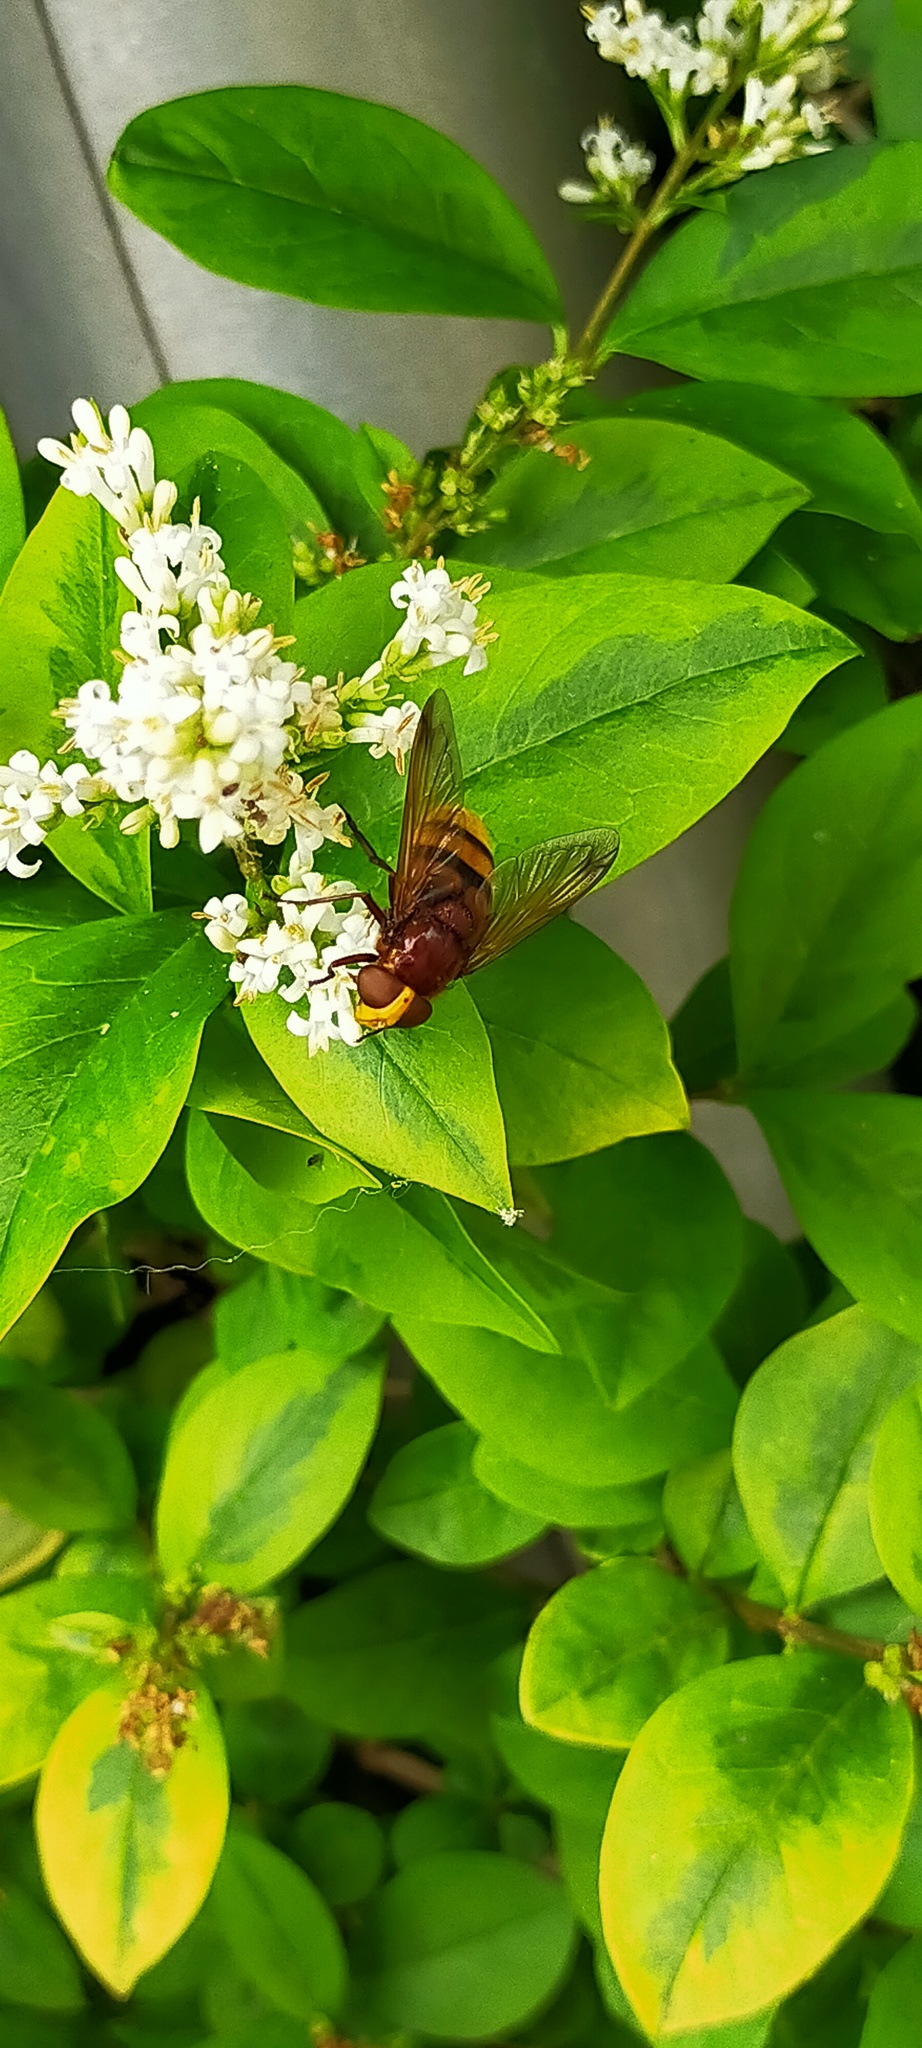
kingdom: Animalia
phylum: Arthropoda
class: Insecta
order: Diptera
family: Syrphidae
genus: Volucella
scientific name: Volucella zonaria
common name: Hornet hoverfly
